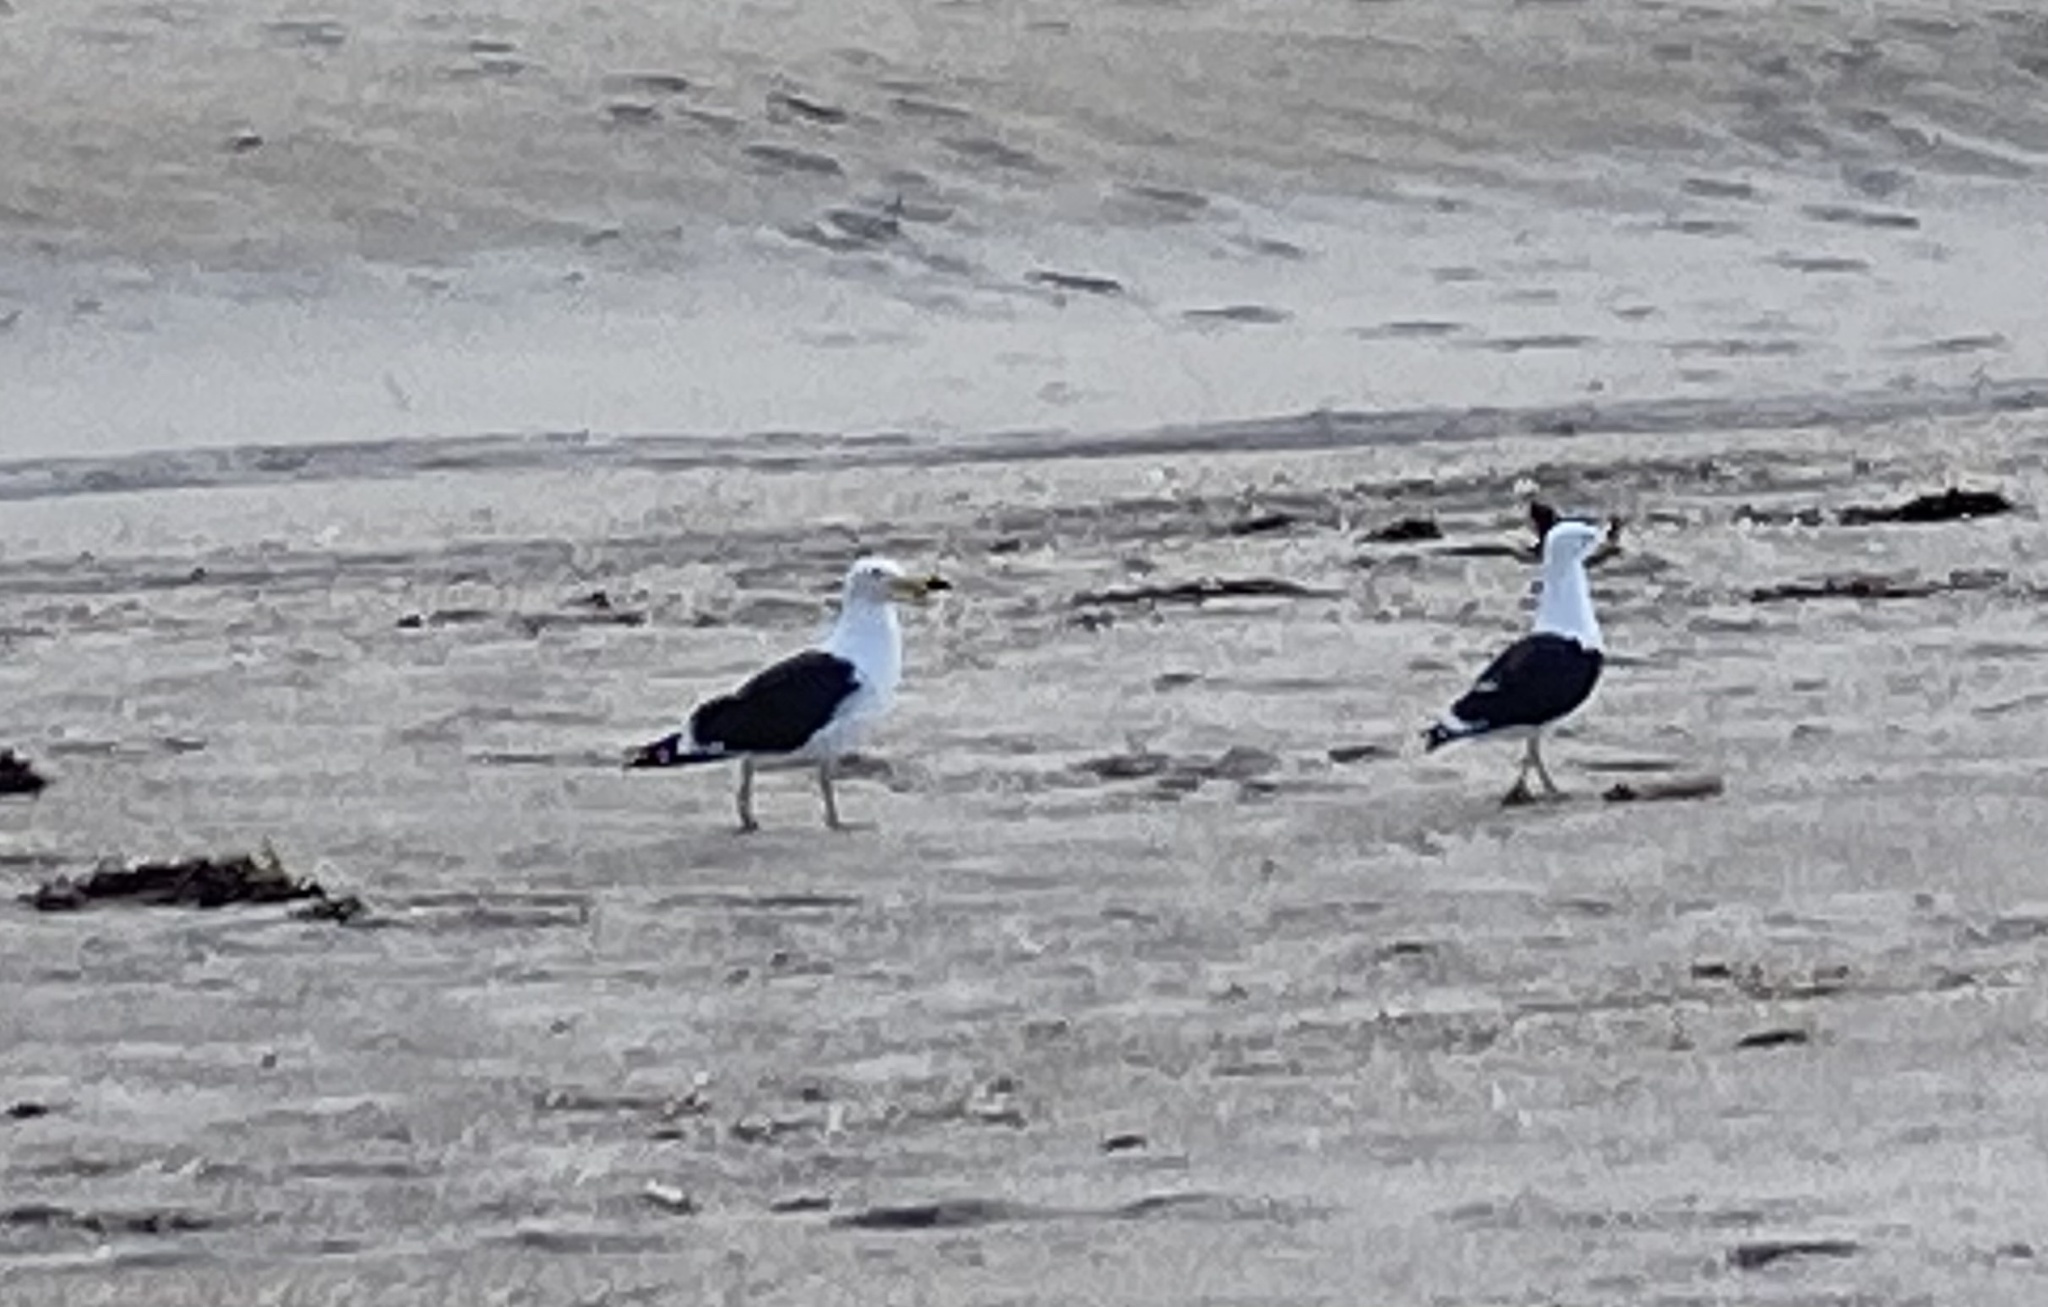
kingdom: Animalia
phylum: Chordata
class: Aves
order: Charadriiformes
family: Laridae
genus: Larus
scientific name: Larus dominicanus
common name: Kelp gull
